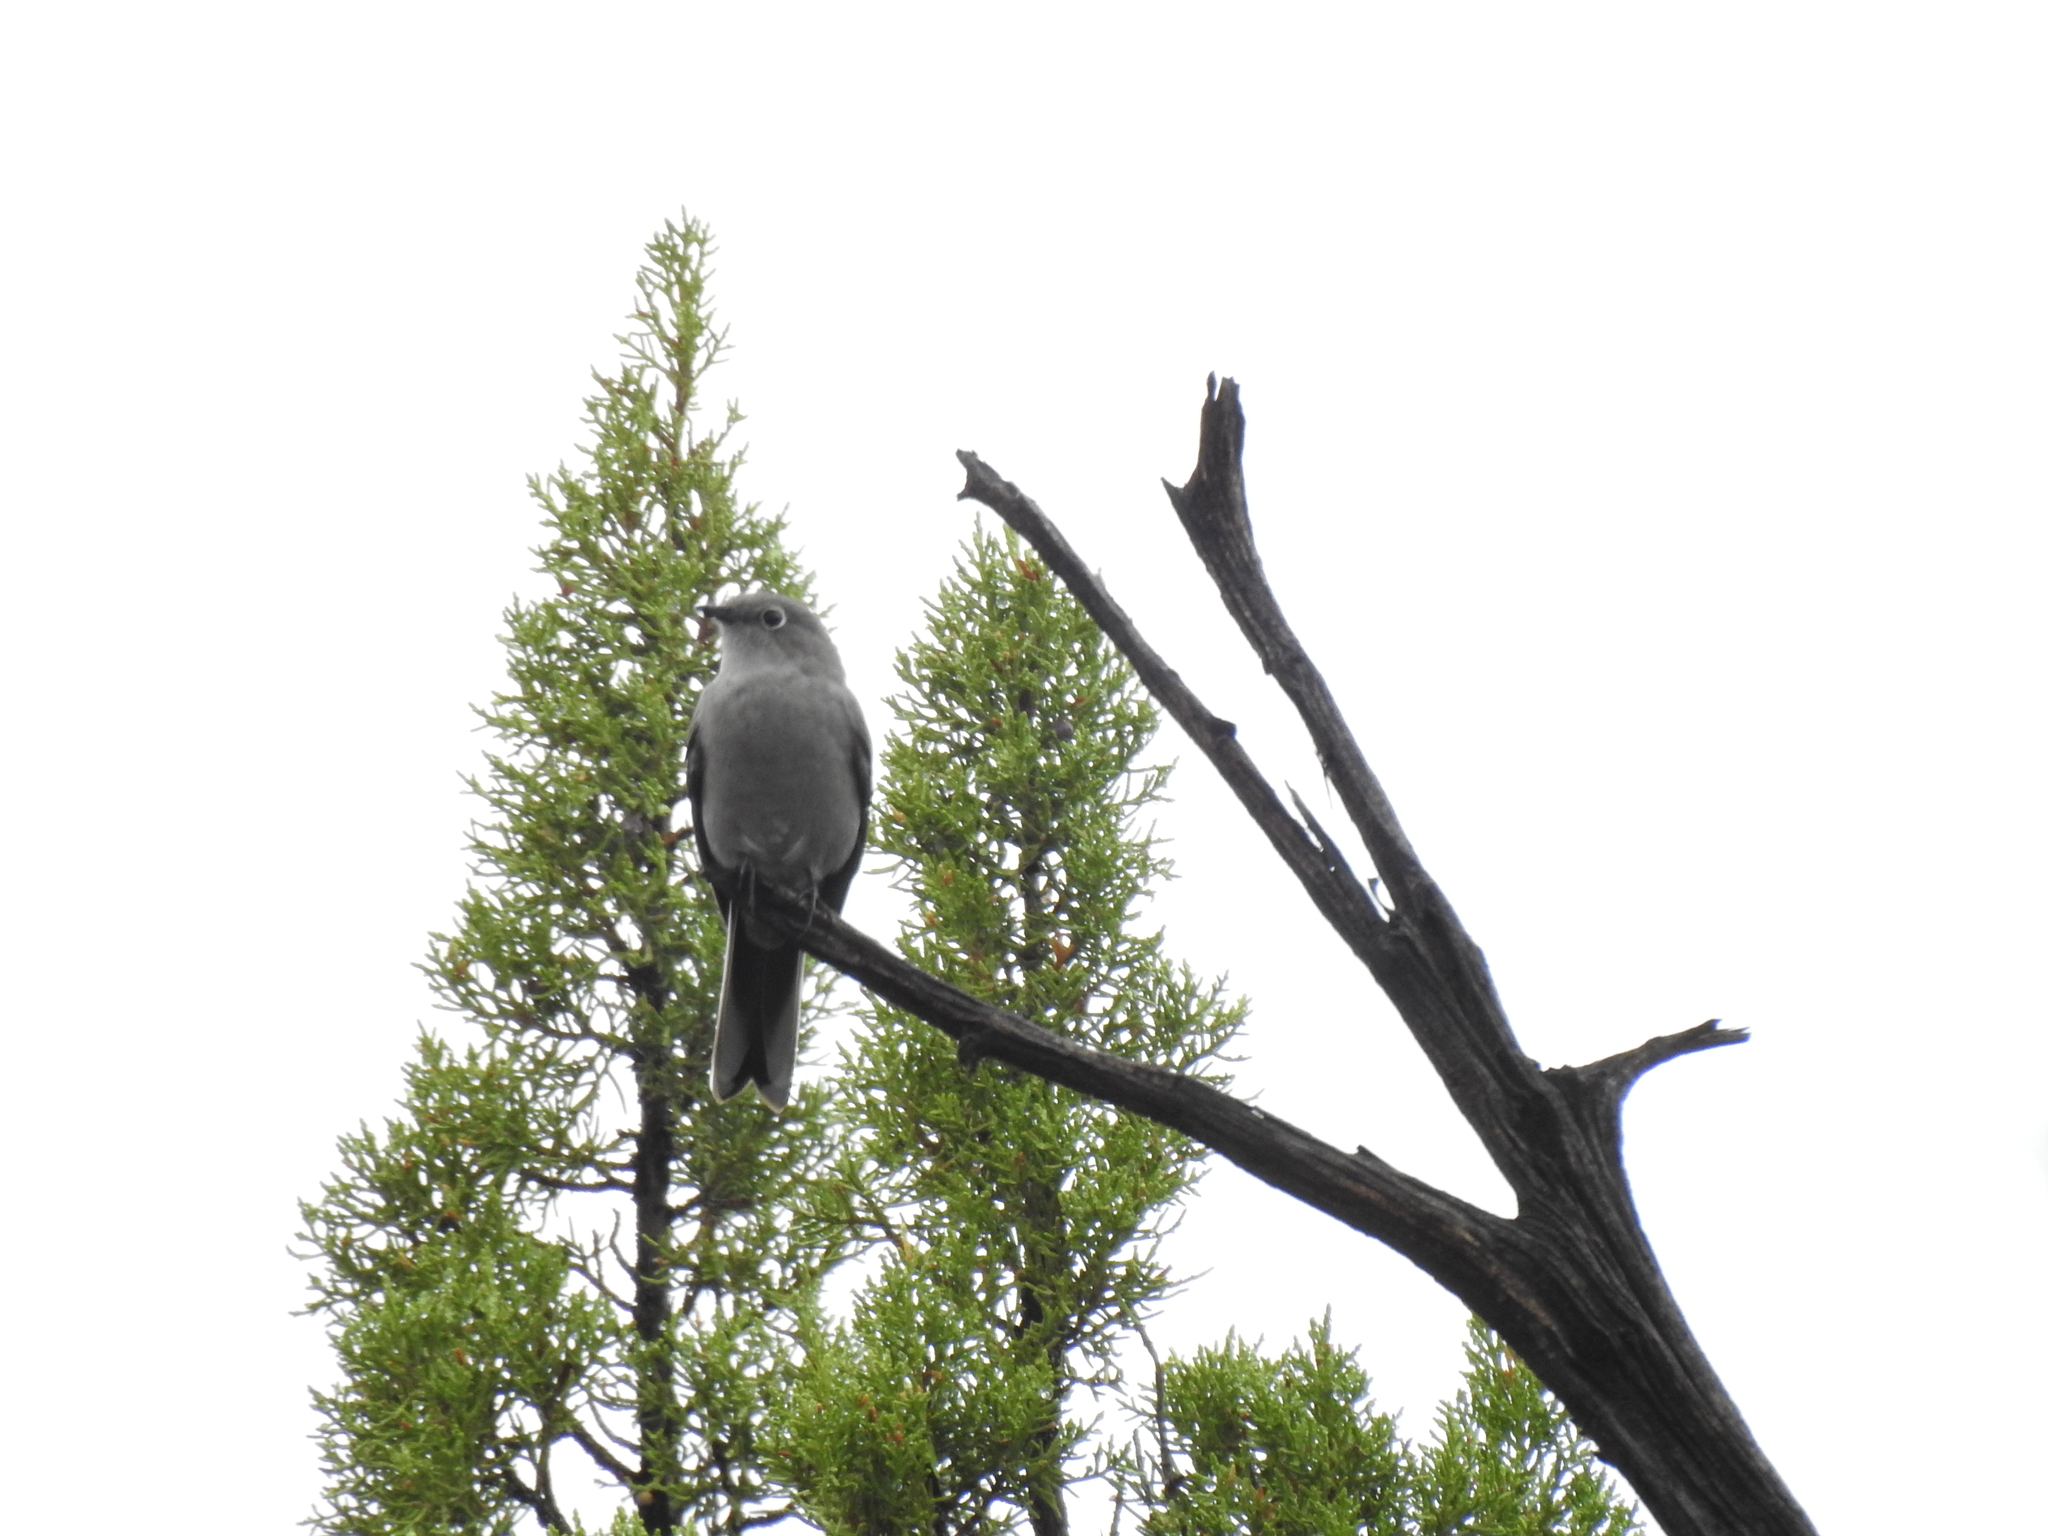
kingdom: Animalia
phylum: Chordata
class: Aves
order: Passeriformes
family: Turdidae
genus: Myadestes
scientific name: Myadestes townsendi
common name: Townsend's solitaire
